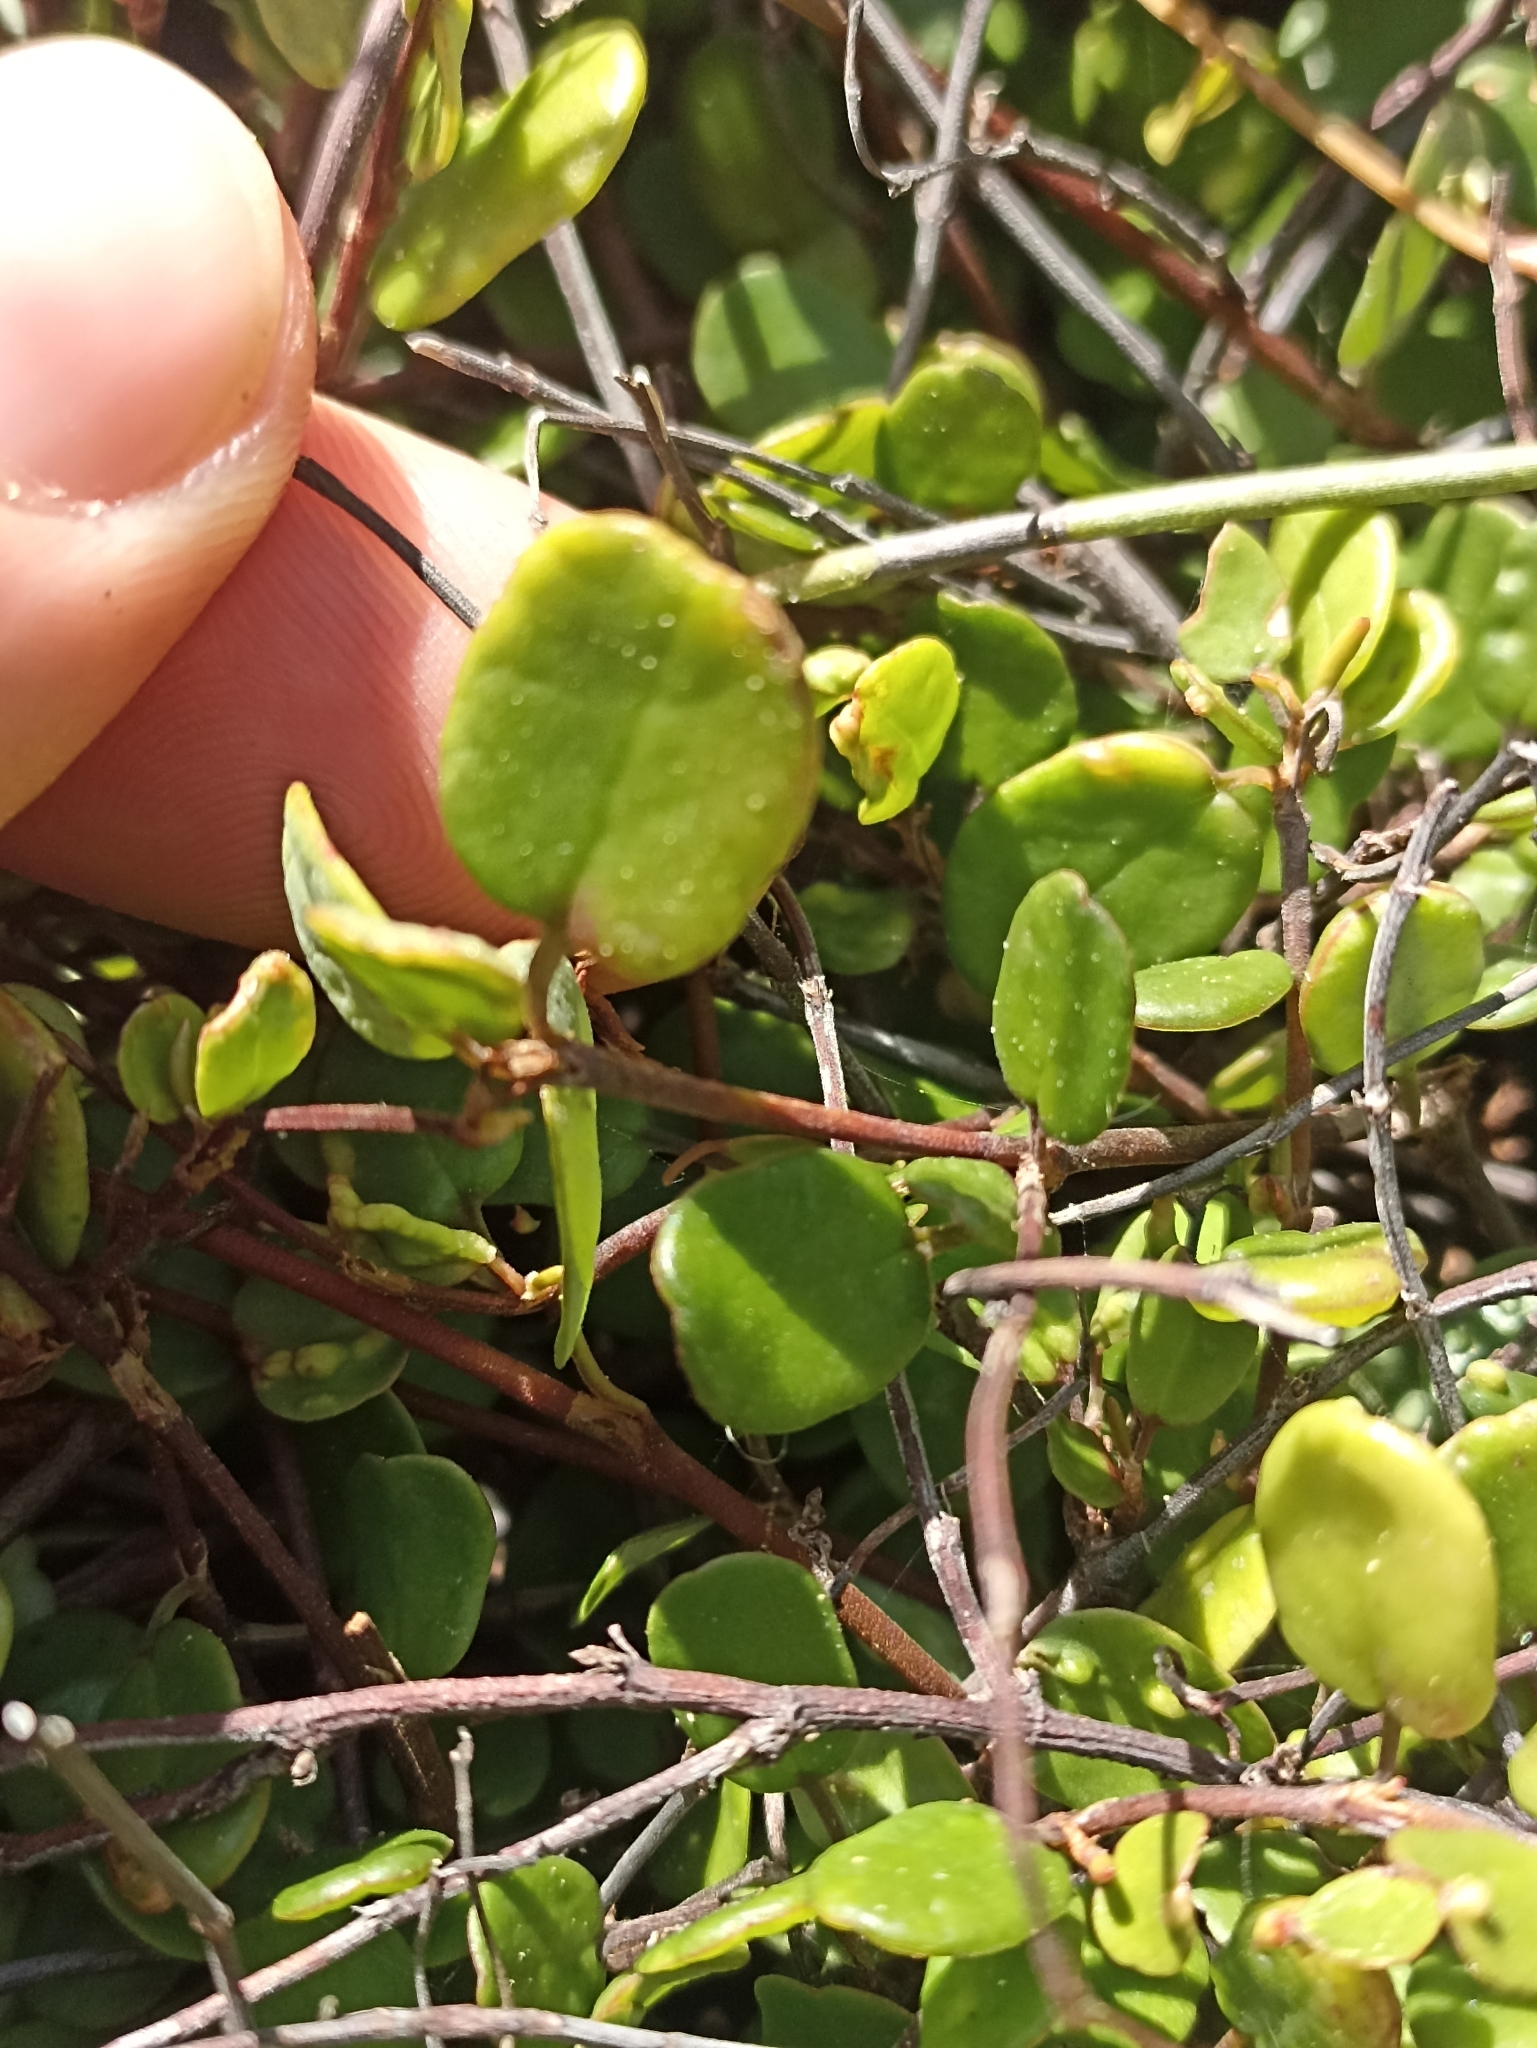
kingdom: Plantae
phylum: Tracheophyta
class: Magnoliopsida
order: Caryophyllales
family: Polygonaceae
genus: Muehlenbeckia
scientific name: Muehlenbeckia complexa
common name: Wireplant
